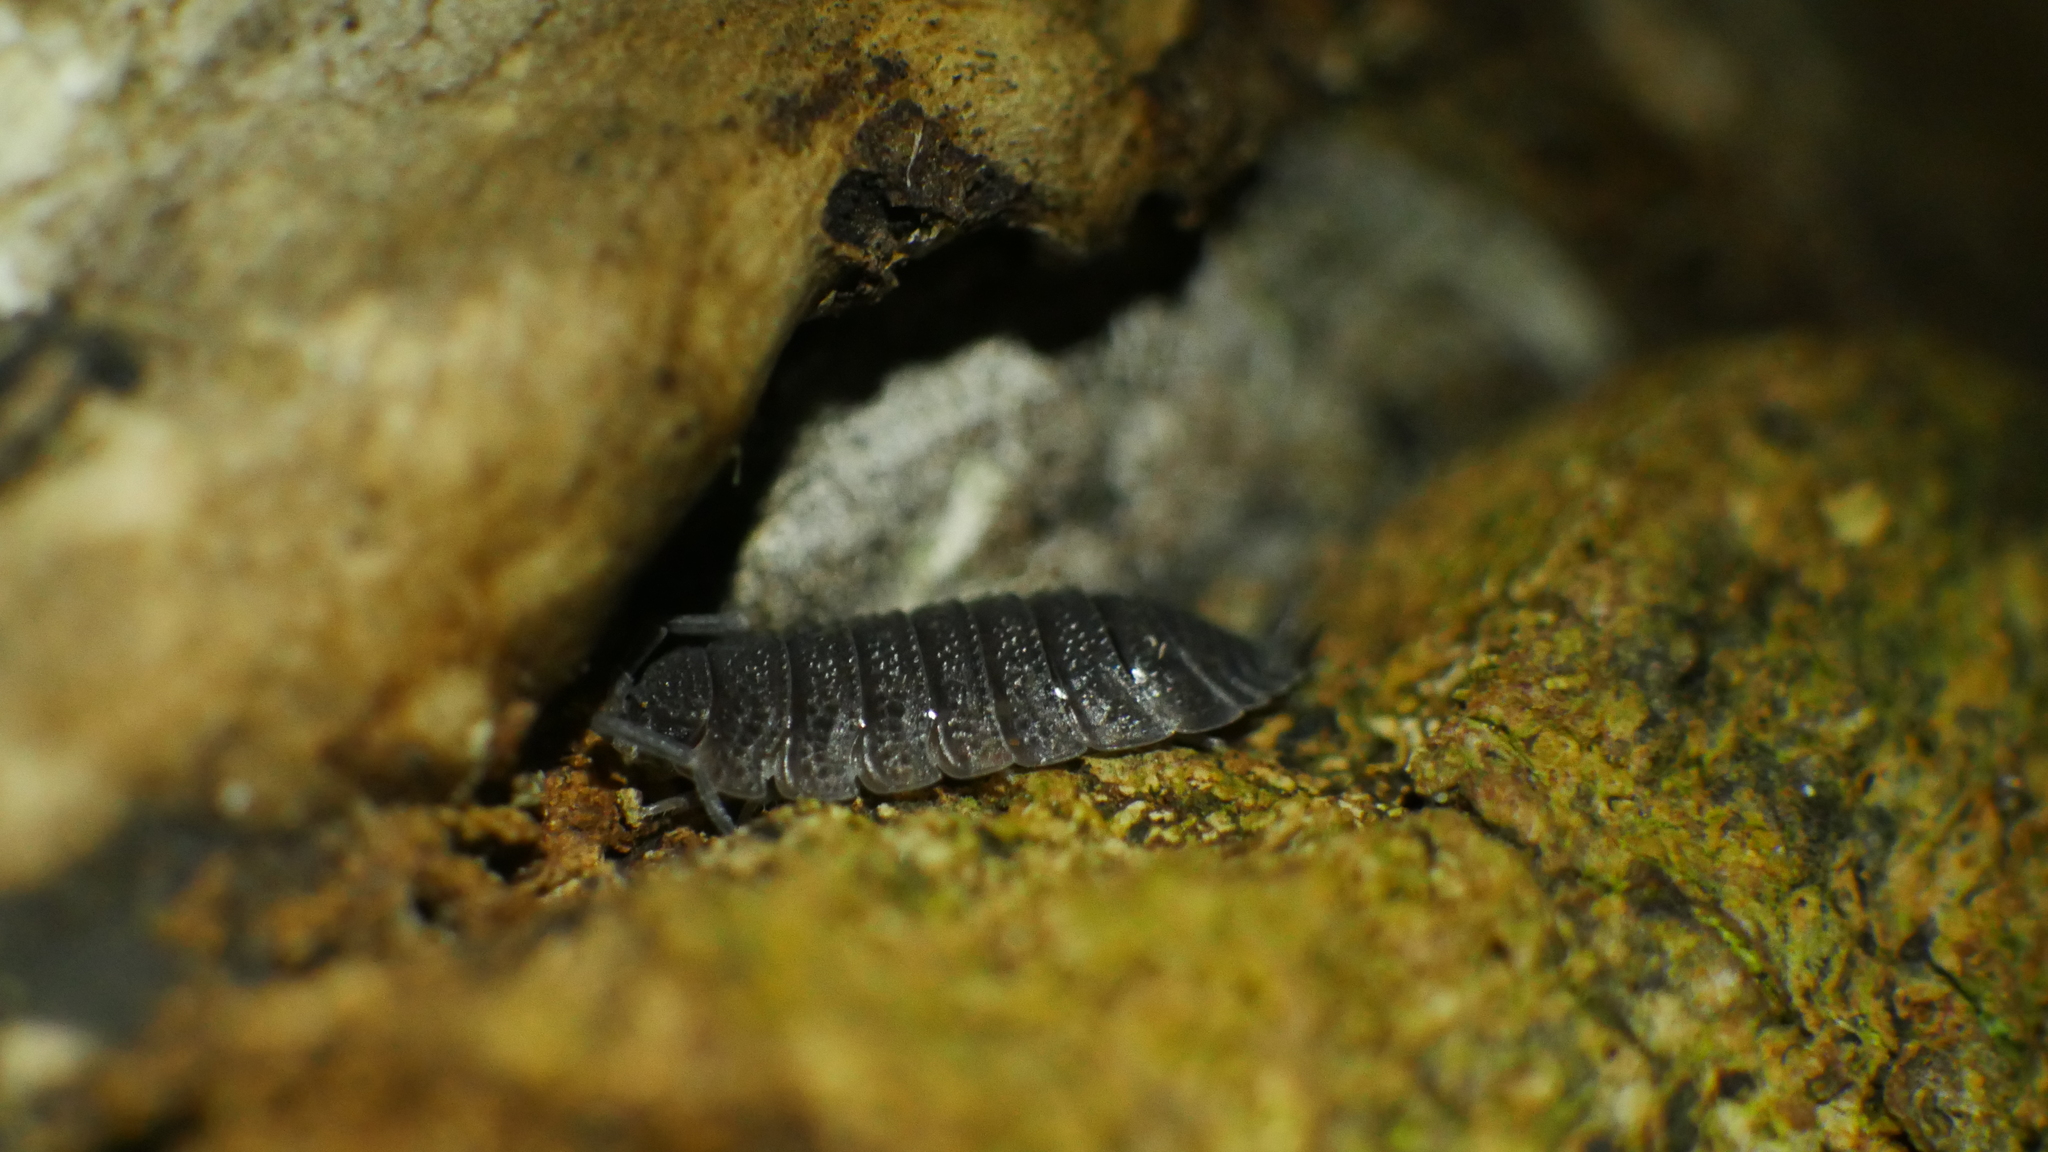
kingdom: Animalia
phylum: Arthropoda
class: Malacostraca
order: Isopoda
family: Porcellionidae
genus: Porcellio
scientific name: Porcellio scaber
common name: Common rough woodlouse
